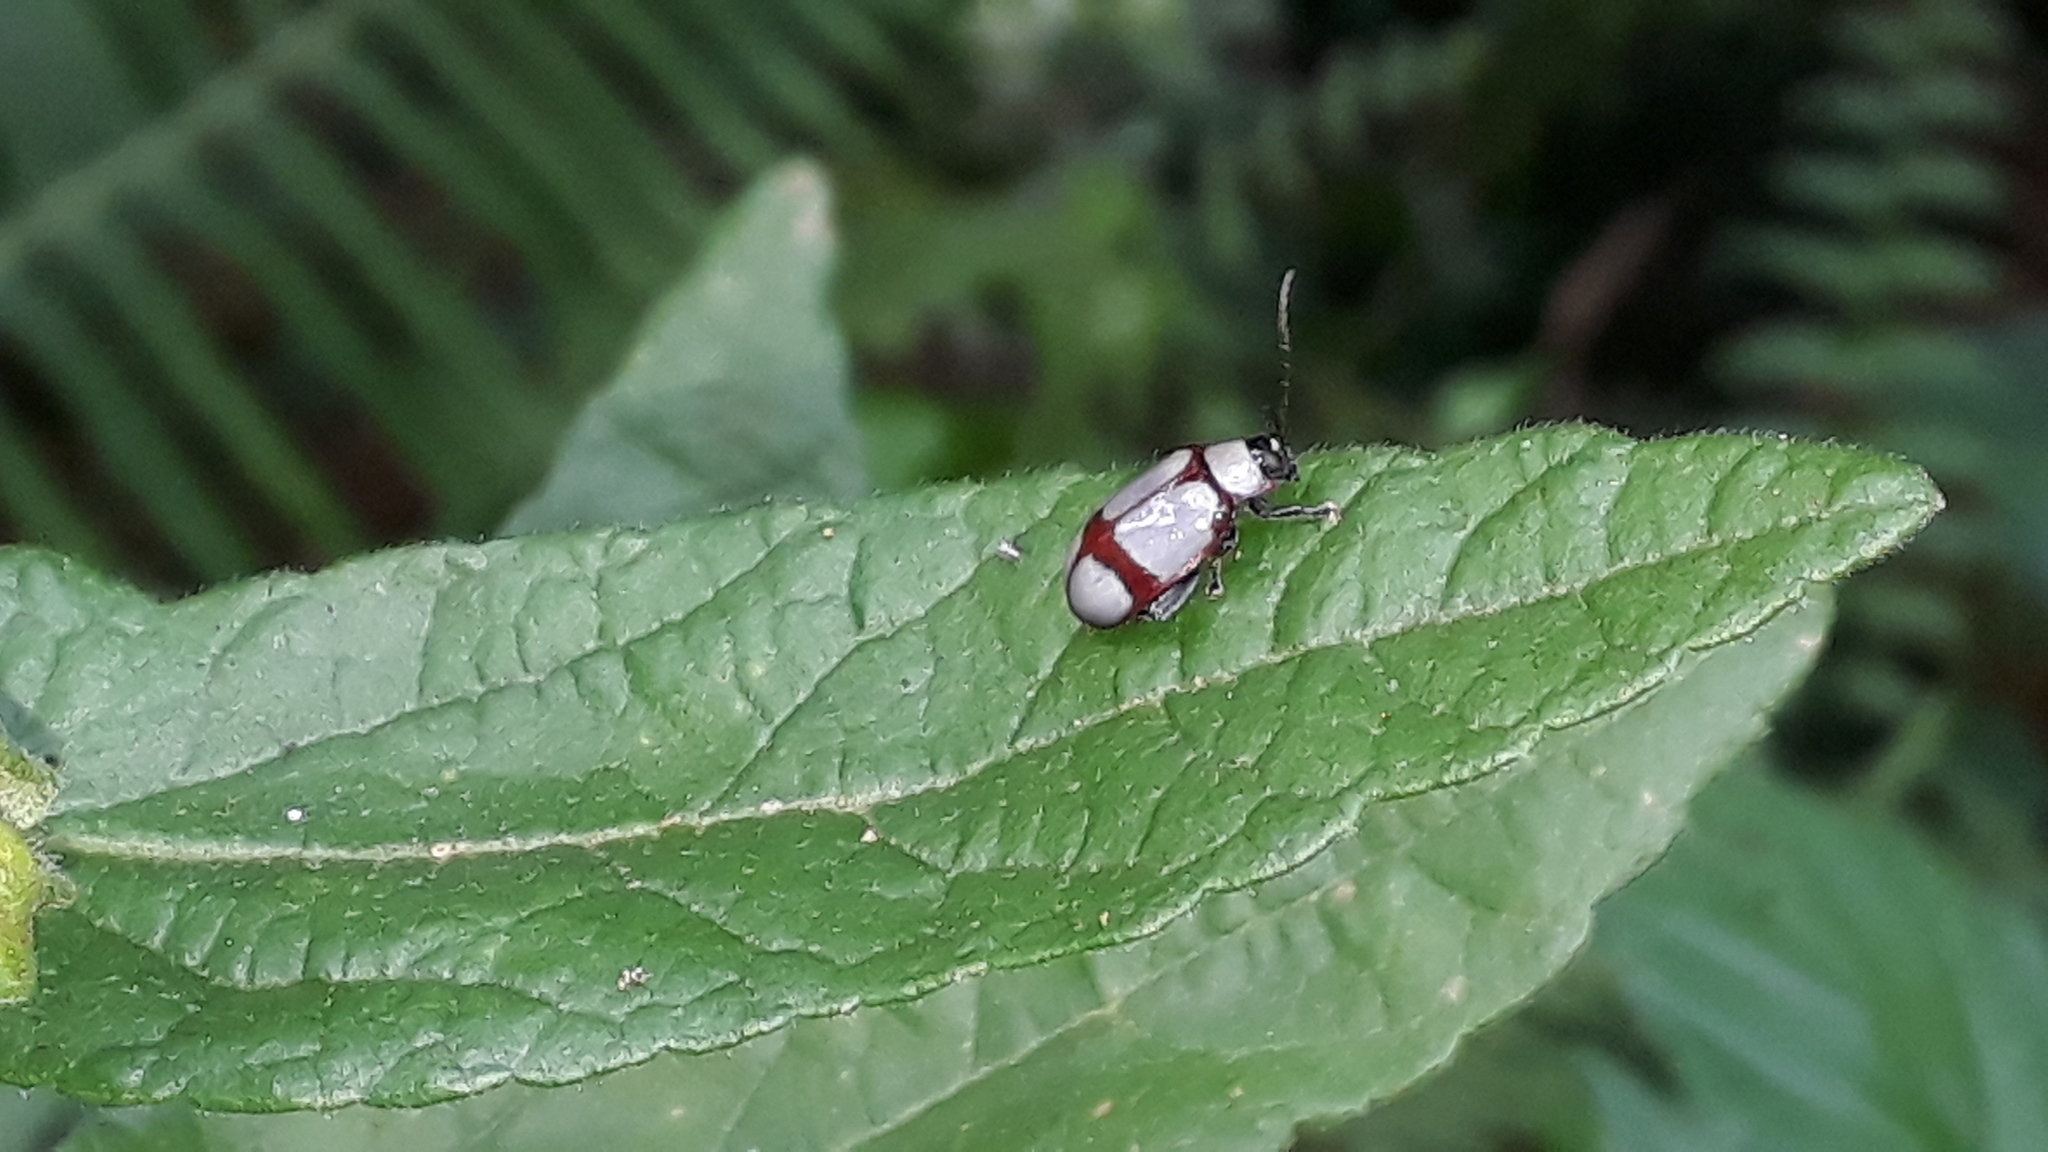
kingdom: Animalia
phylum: Arthropoda
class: Insecta
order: Coleoptera
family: Chrysomelidae
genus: Omophoita
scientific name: Omophoita
